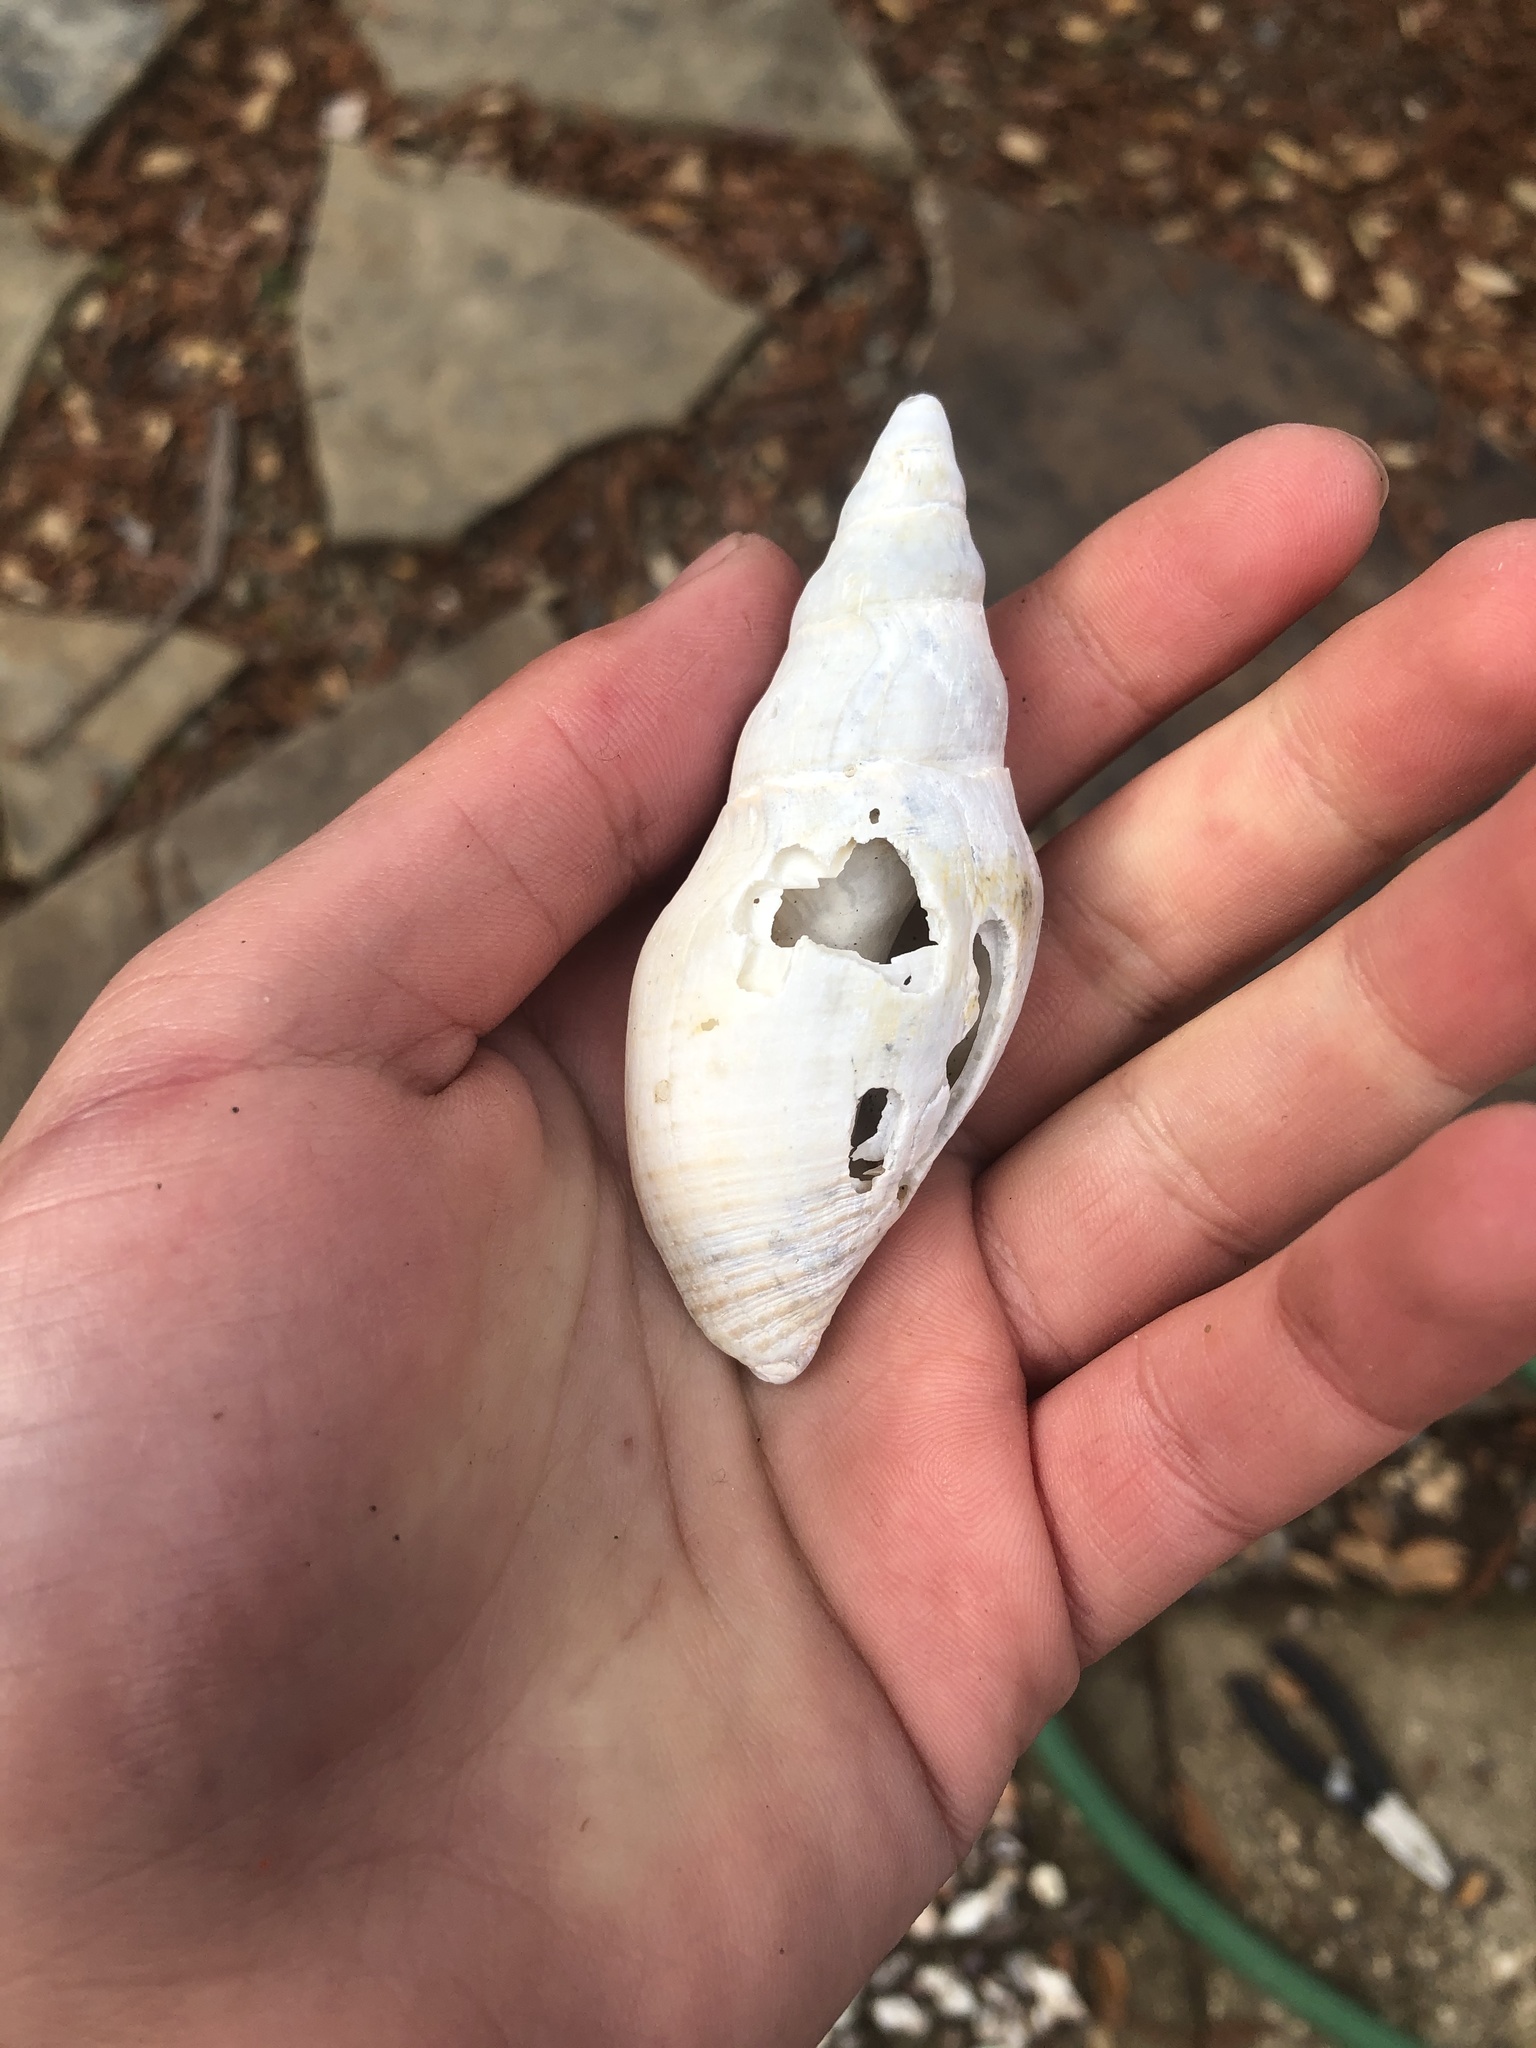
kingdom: Animalia
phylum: Mollusca
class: Gastropoda
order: Neogastropoda
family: Pseudomelatomidae
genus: Megasurcula
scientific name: Megasurcula carpenteriana
